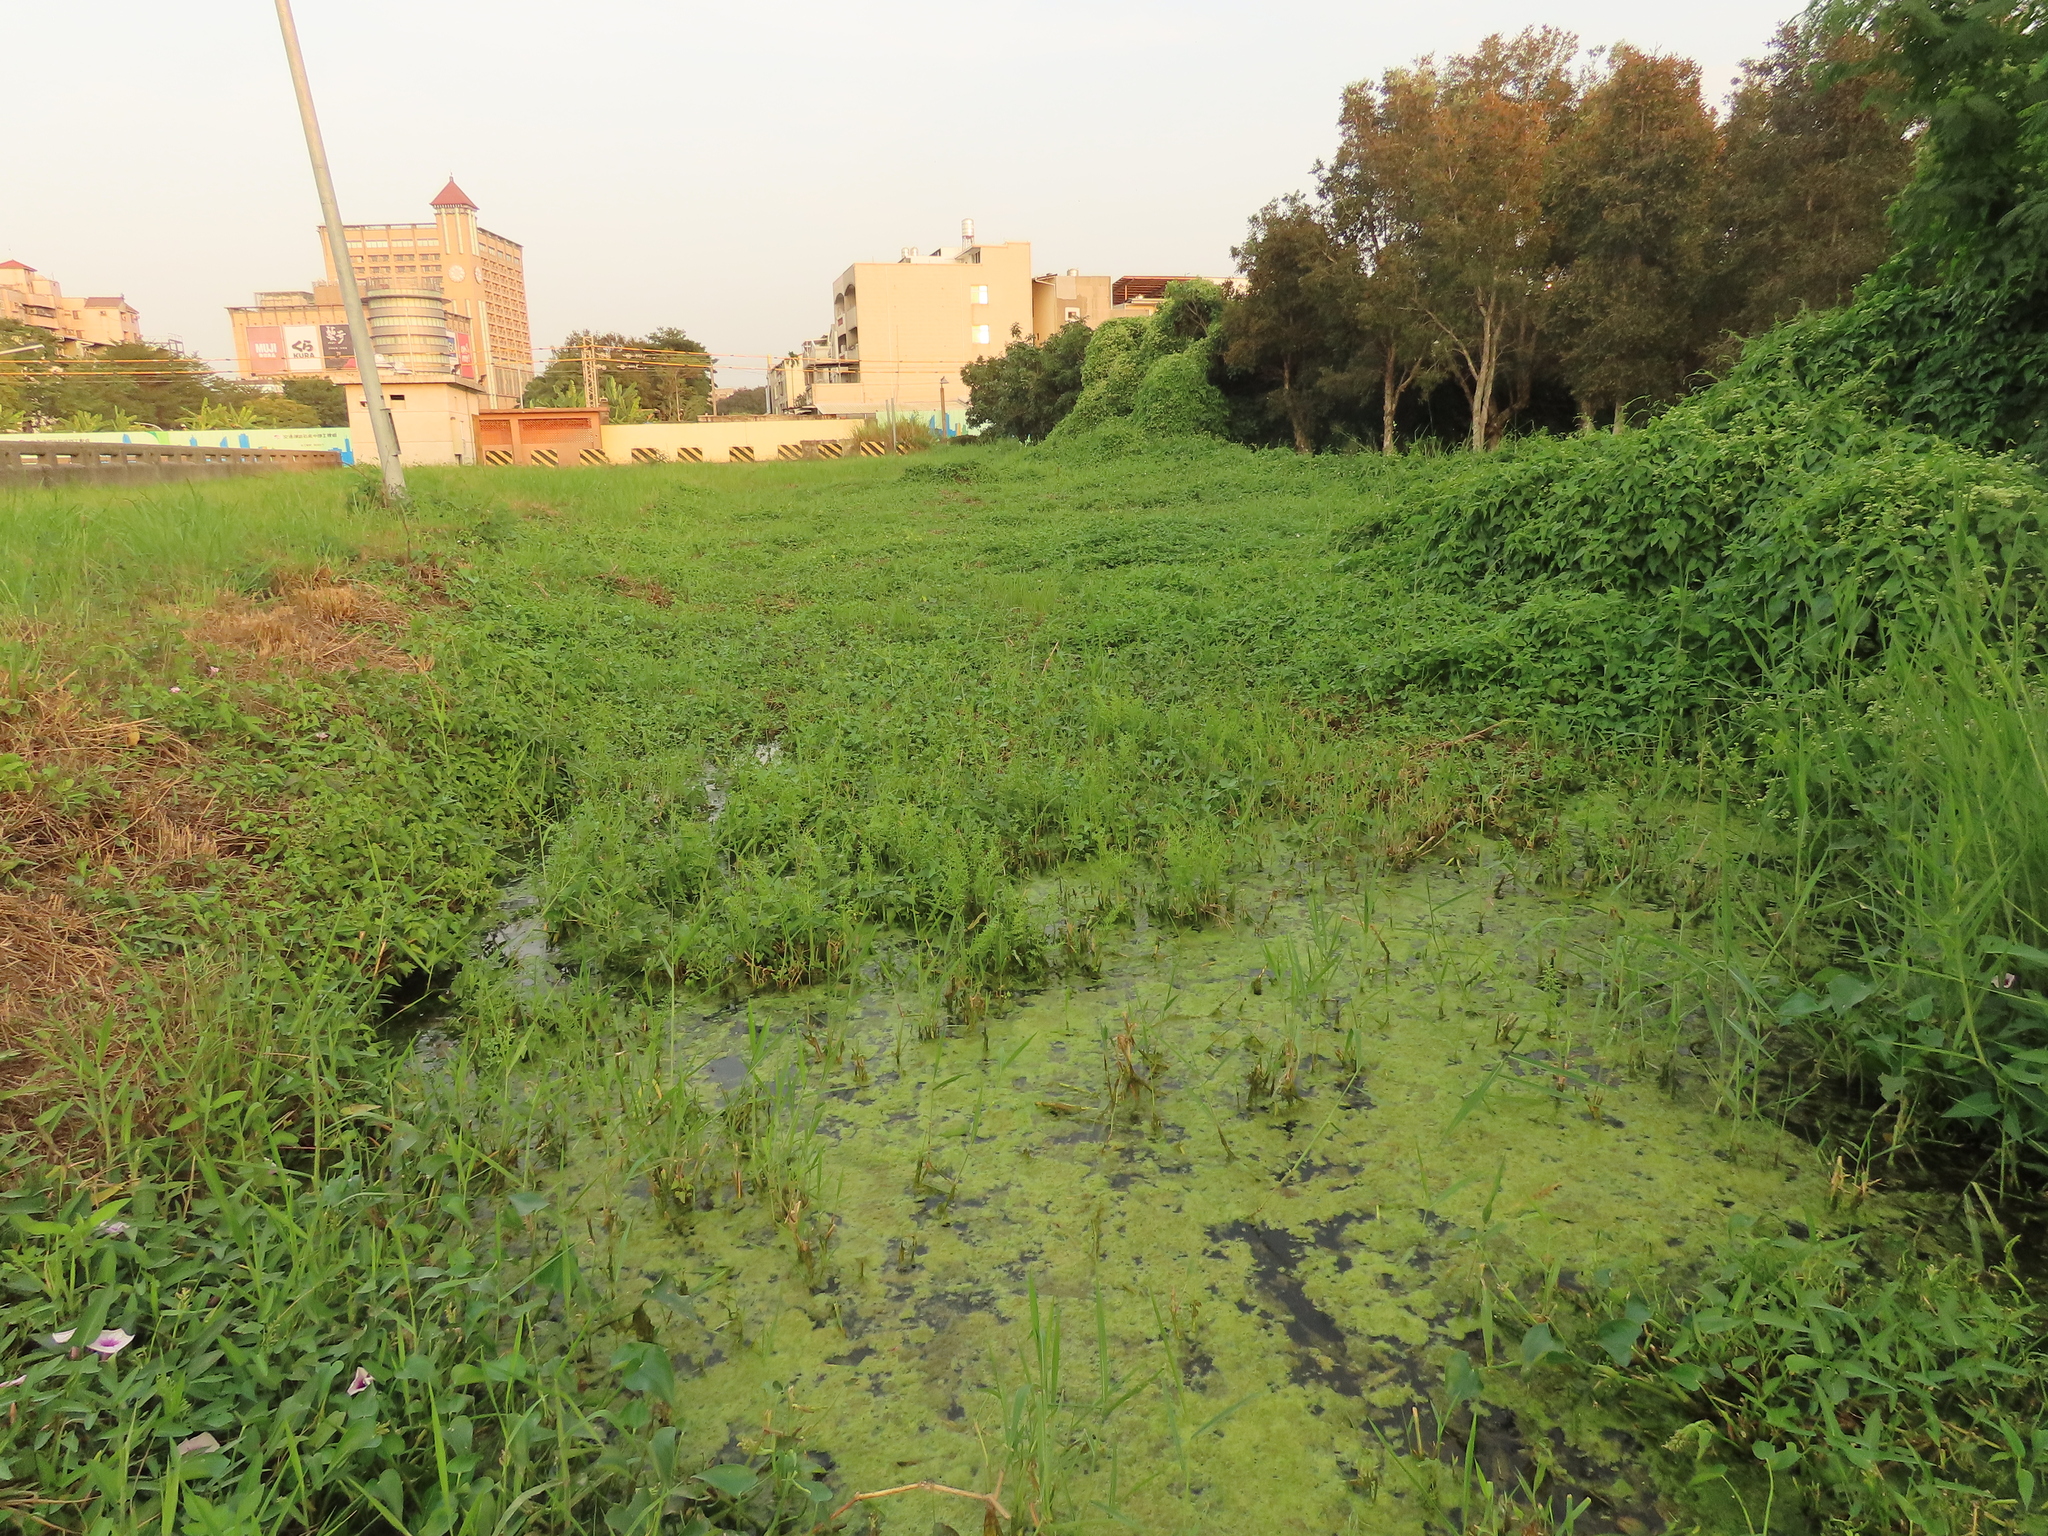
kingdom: Plantae
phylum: Tracheophyta
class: Polypodiopsida
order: Polypodiales
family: Pteridaceae
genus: Ceratopteris
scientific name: Ceratopteris thalictroides
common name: Water fern
